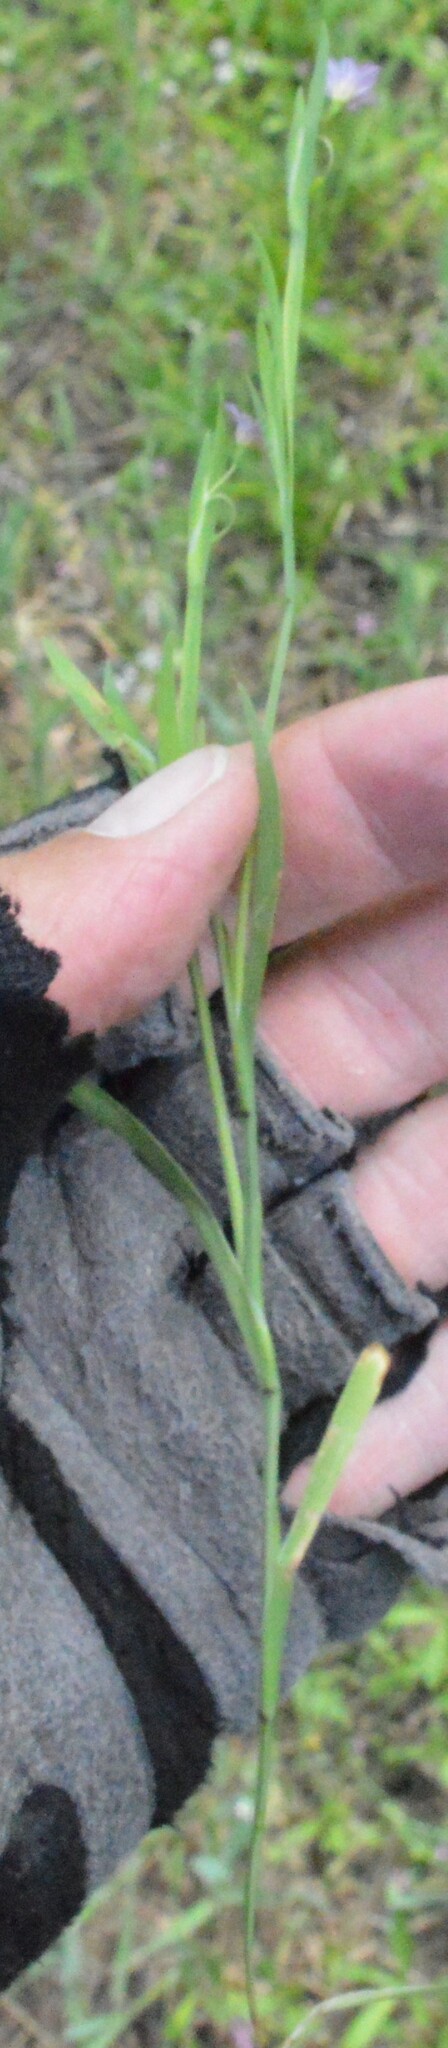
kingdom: Plantae
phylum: Tracheophyta
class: Liliopsida
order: Asparagales
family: Iridaceae
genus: Sisyrinchium
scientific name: Sisyrinchium minus
